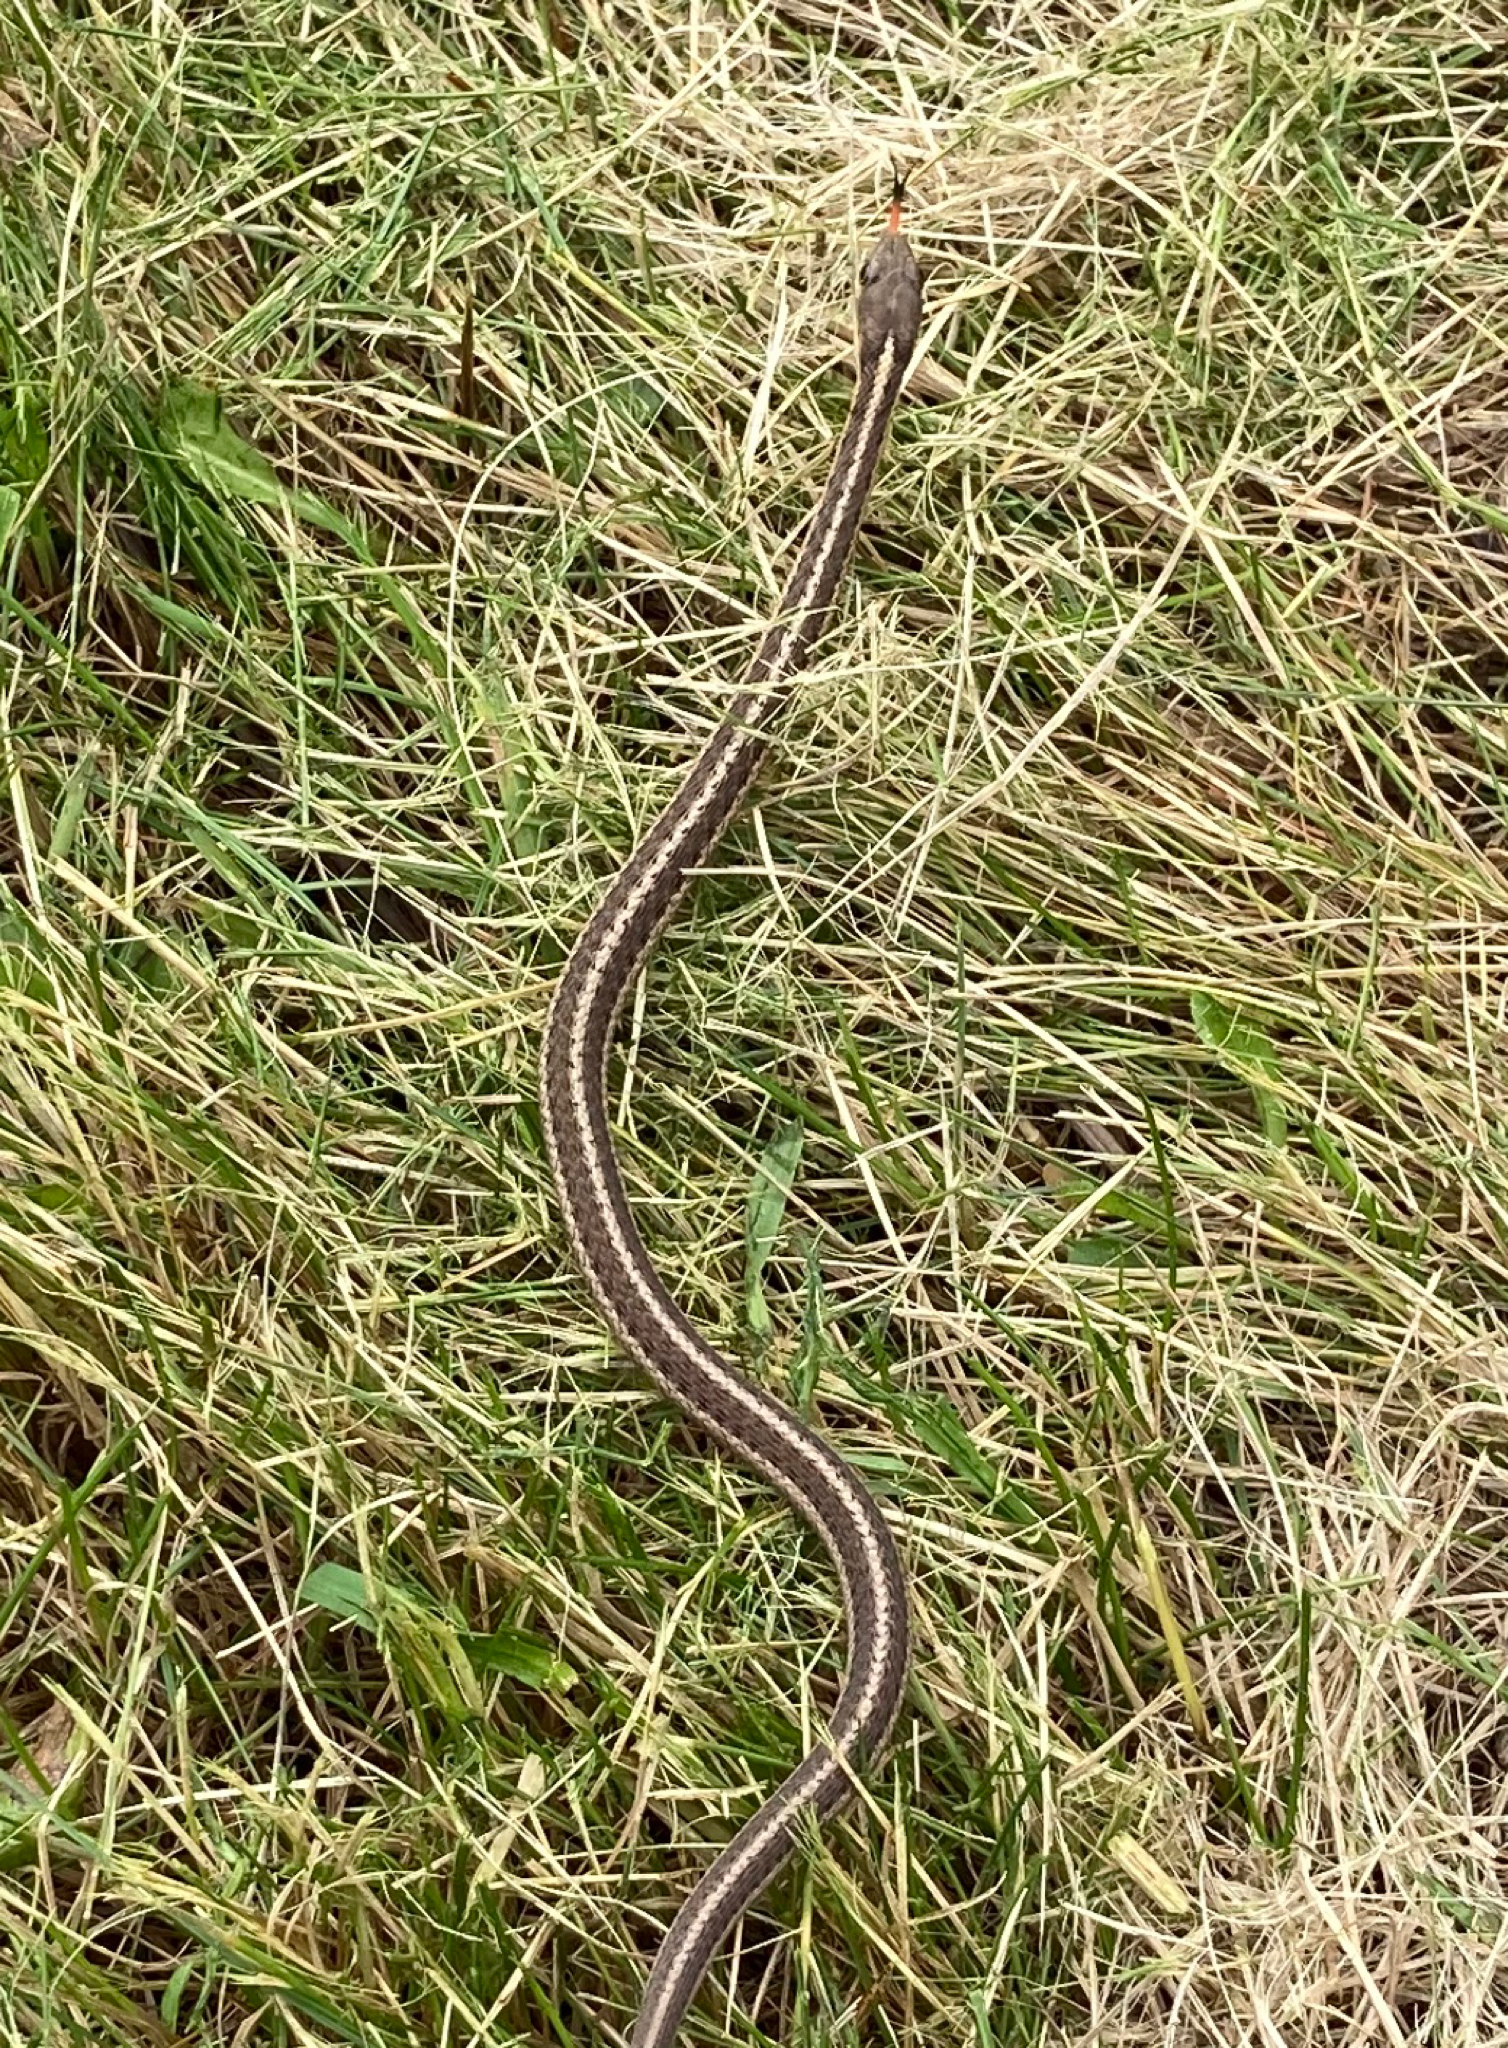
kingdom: Animalia
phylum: Chordata
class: Squamata
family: Colubridae
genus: Thamnophis
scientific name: Thamnophis sirtalis
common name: Common garter snake
